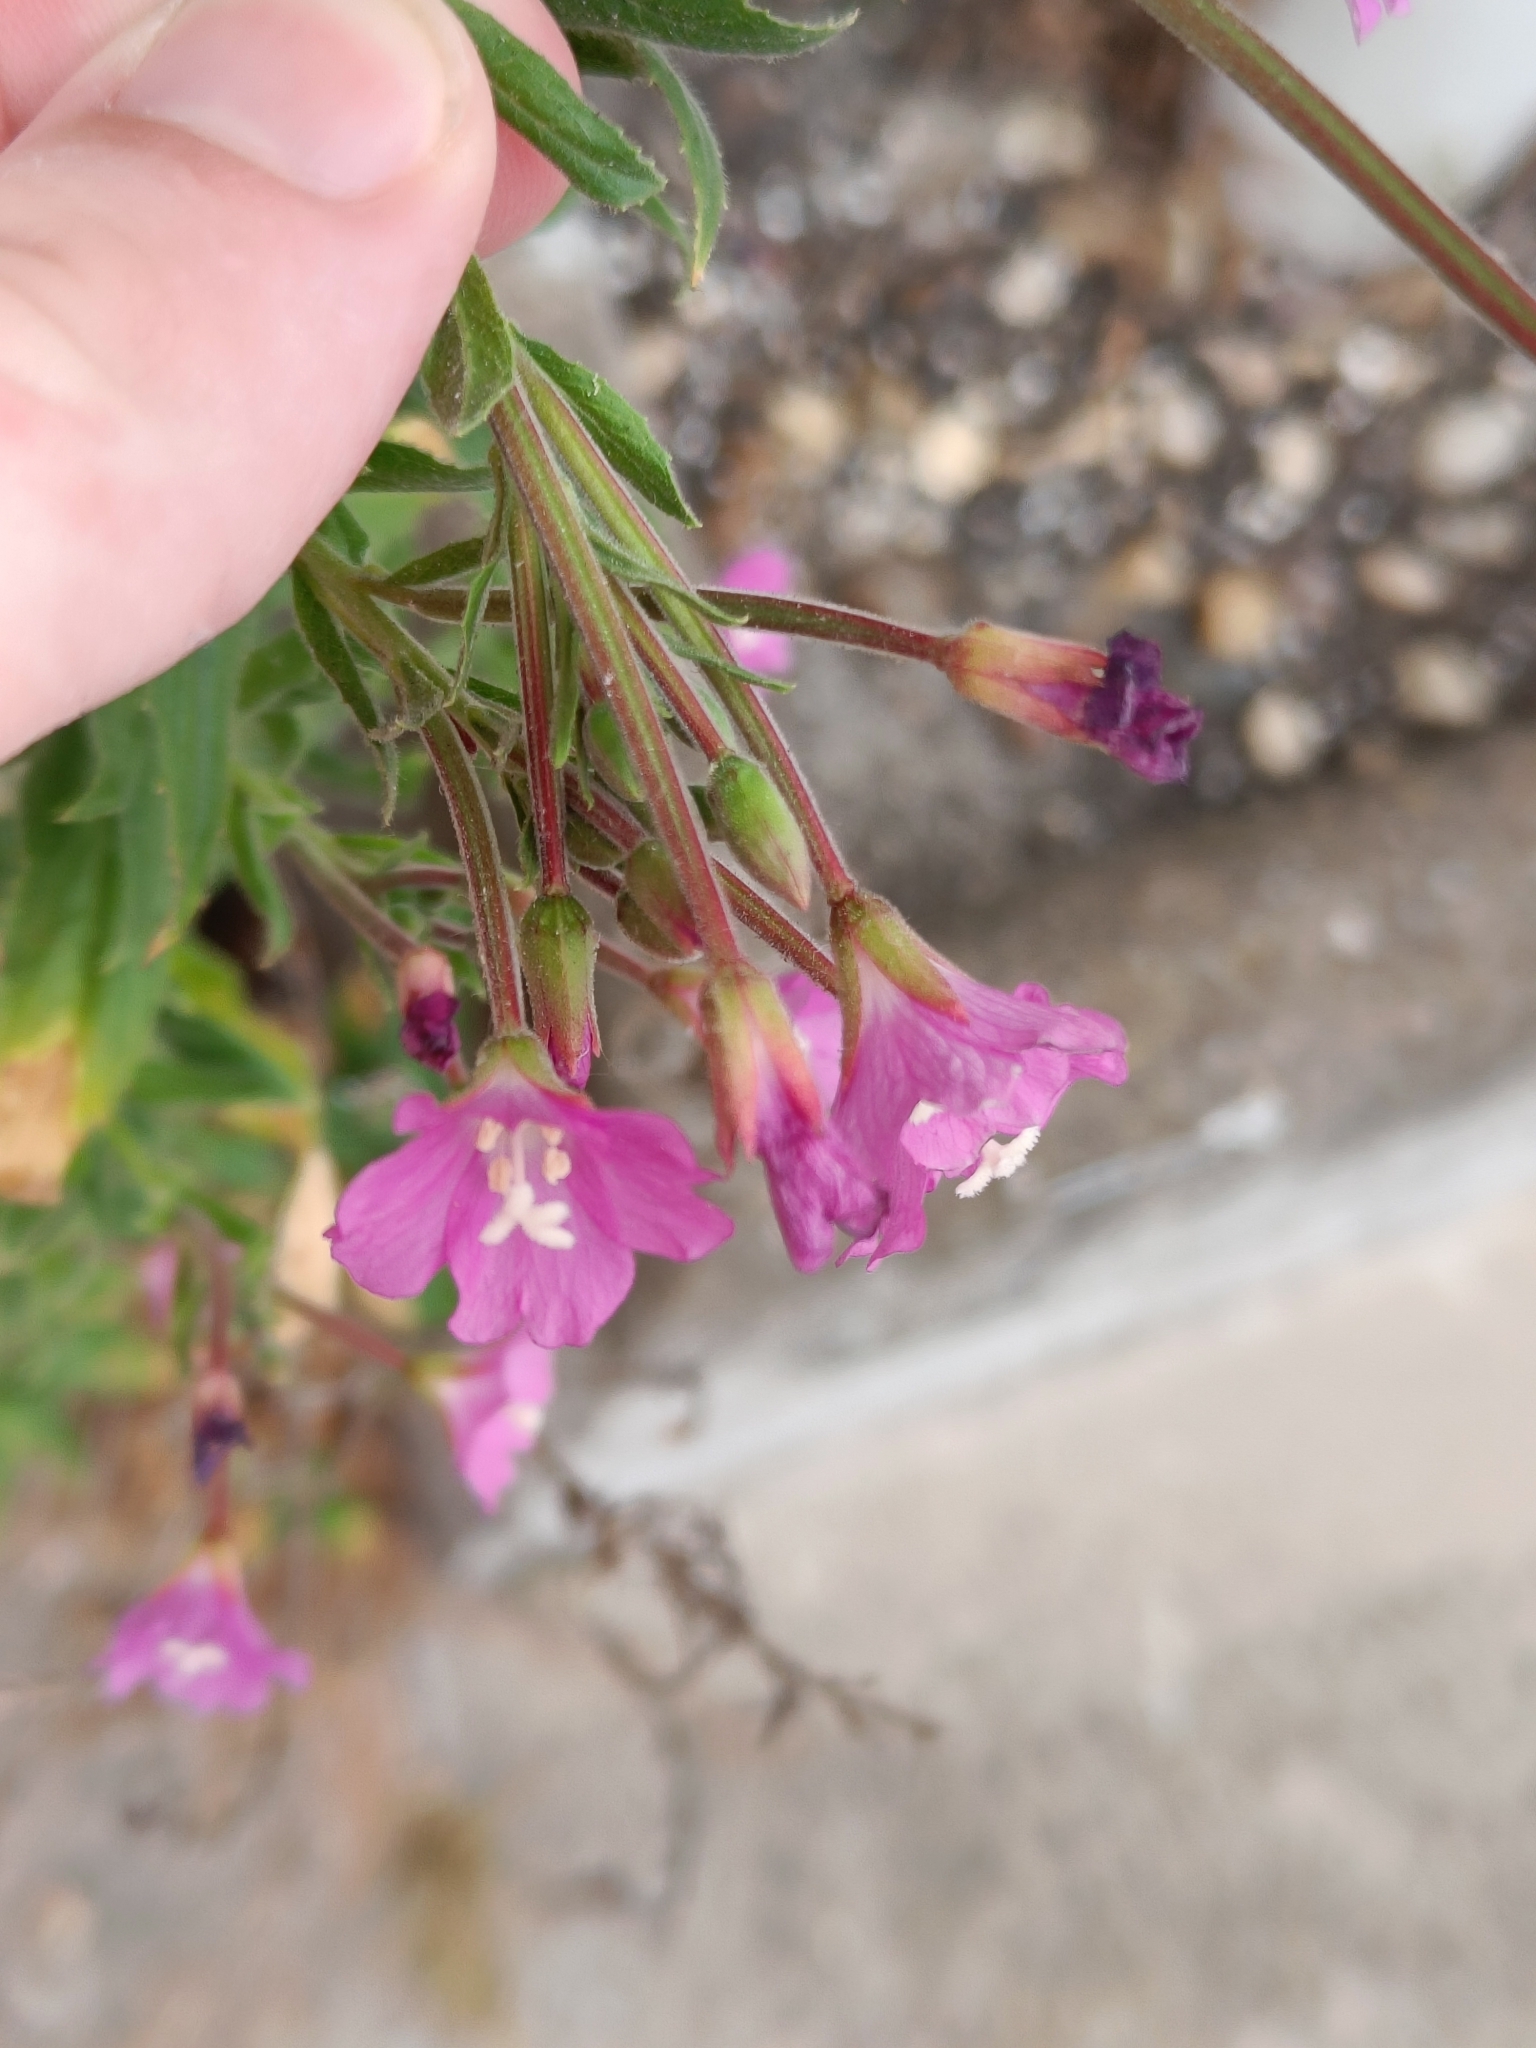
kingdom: Plantae
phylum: Tracheophyta
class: Magnoliopsida
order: Myrtales
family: Onagraceae
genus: Epilobium
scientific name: Epilobium hirsutum
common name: Great willowherb
